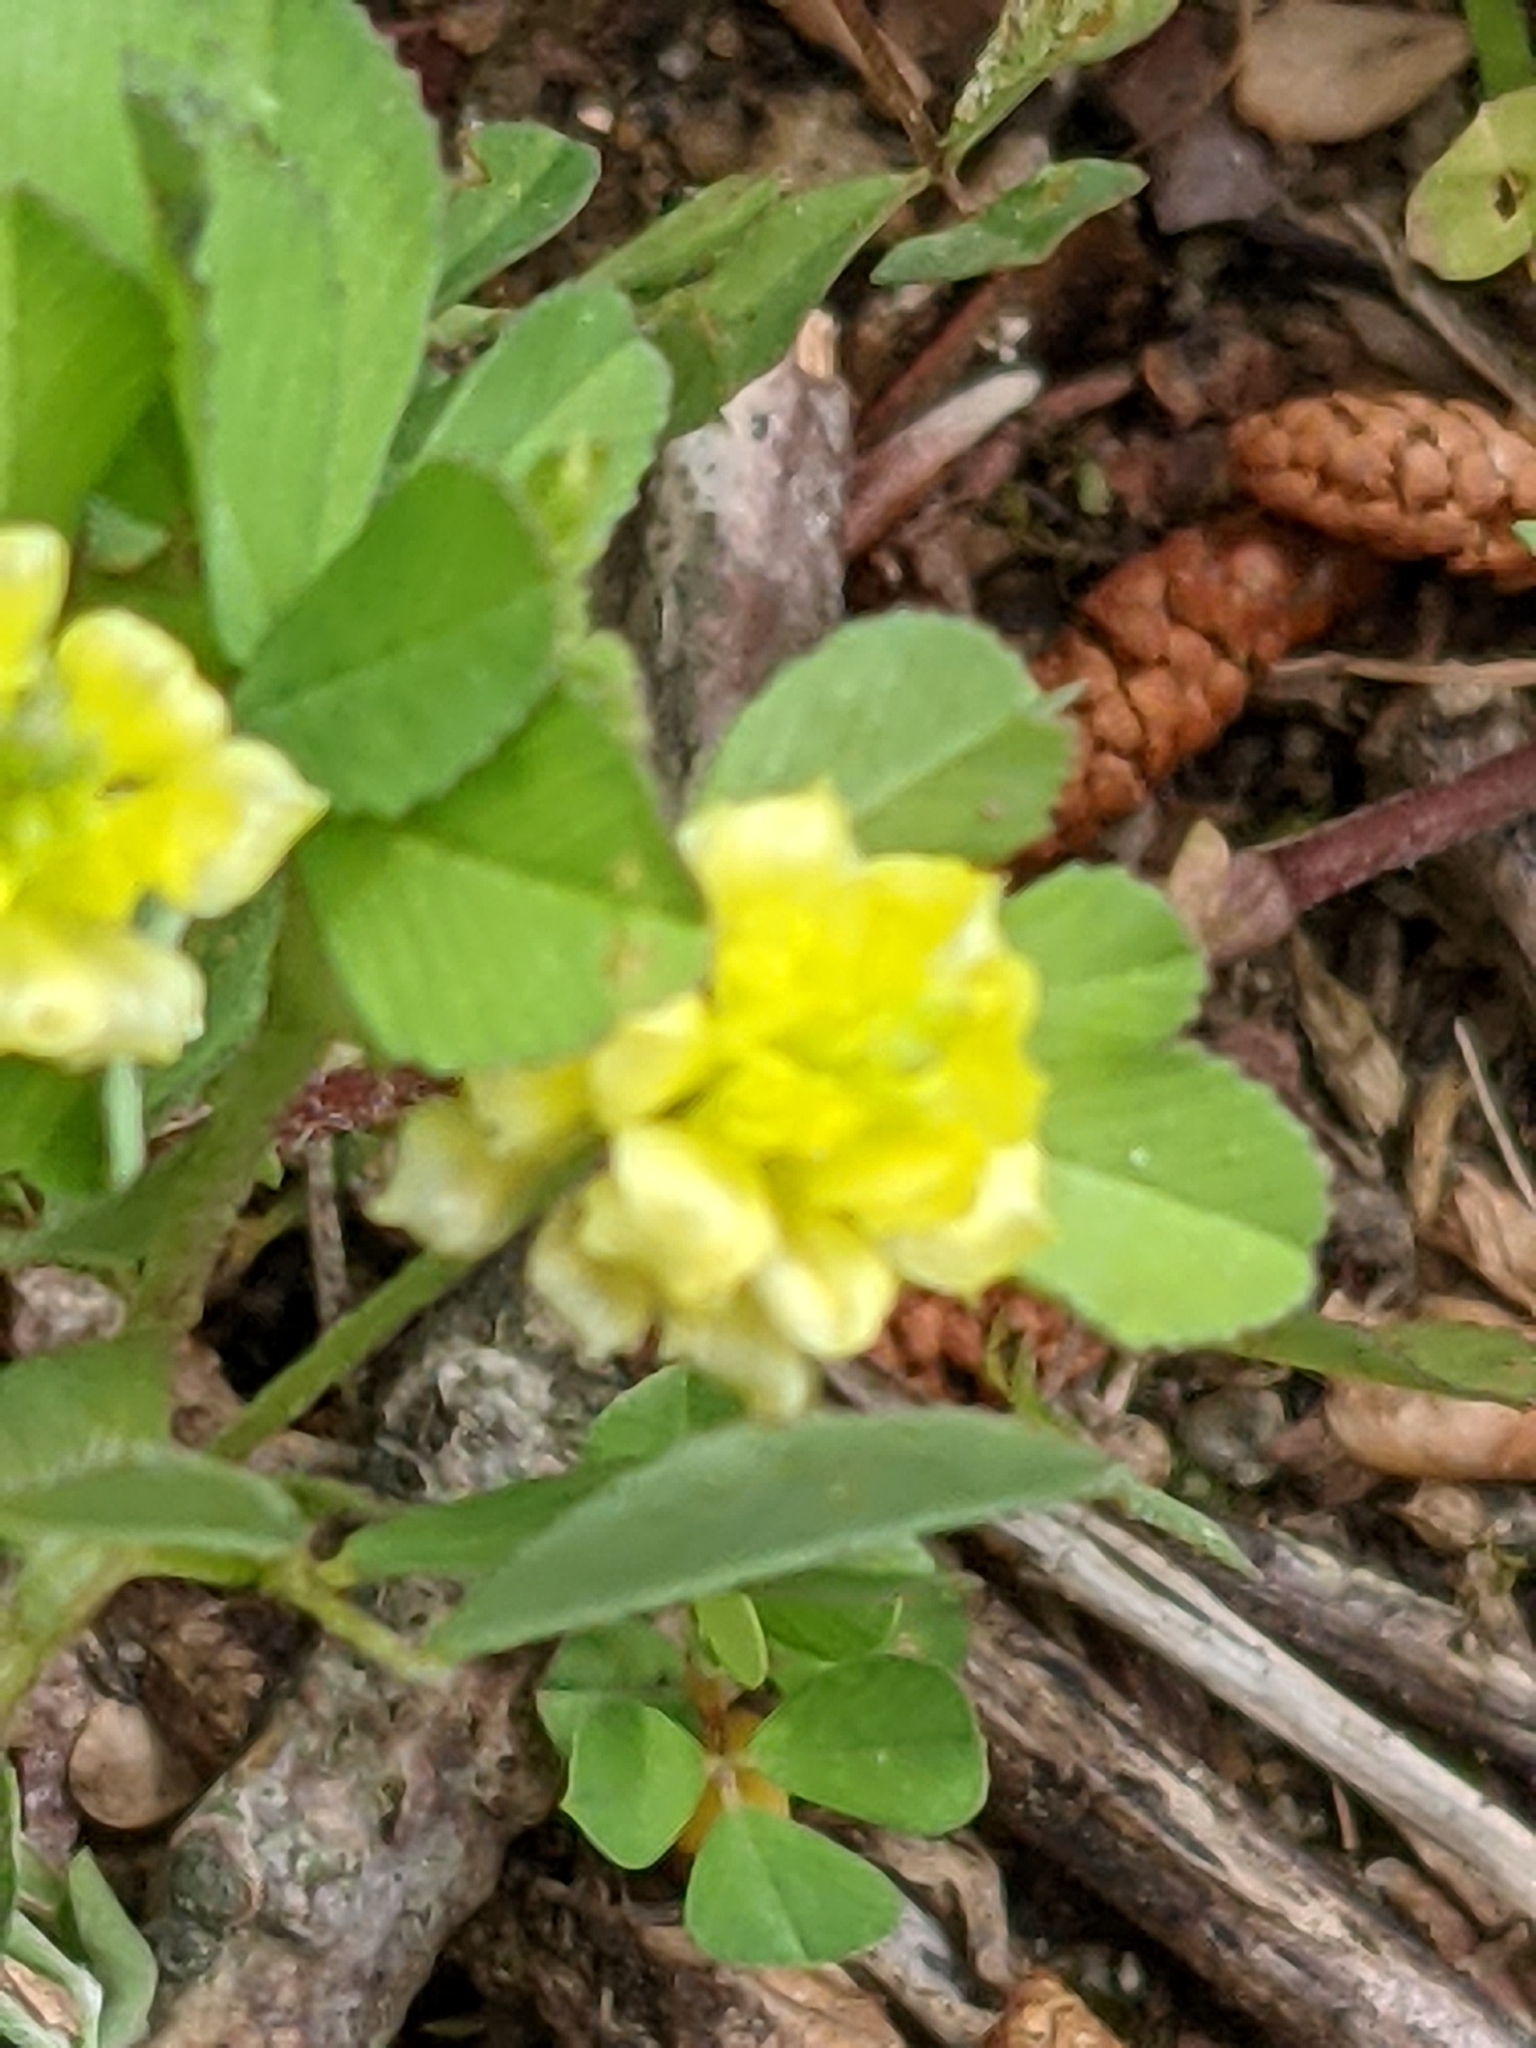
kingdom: Plantae
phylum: Tracheophyta
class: Magnoliopsida
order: Fabales
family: Fabaceae
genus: Trifolium
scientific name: Trifolium campestre
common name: Field clover
